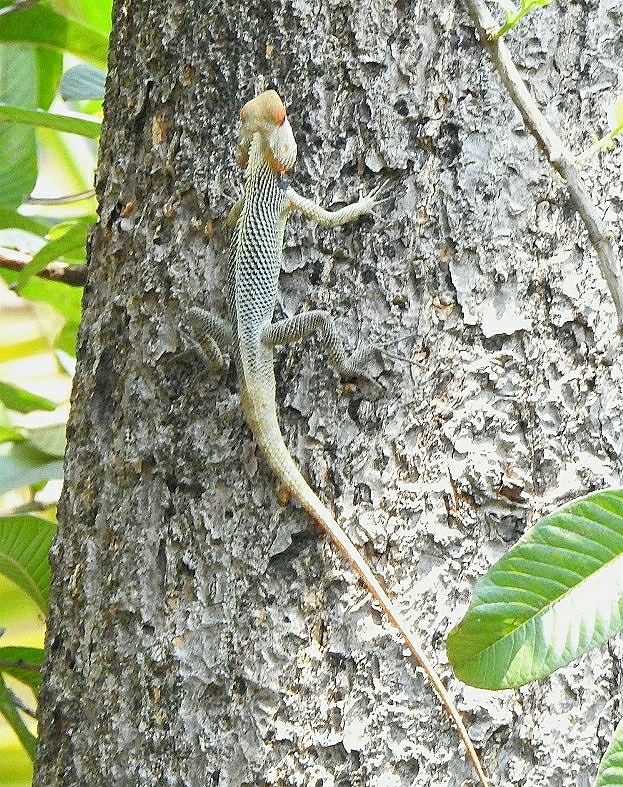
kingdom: Animalia
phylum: Chordata
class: Squamata
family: Agamidae
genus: Calotes
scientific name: Calotes versicolor
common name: Oriental garden lizard
